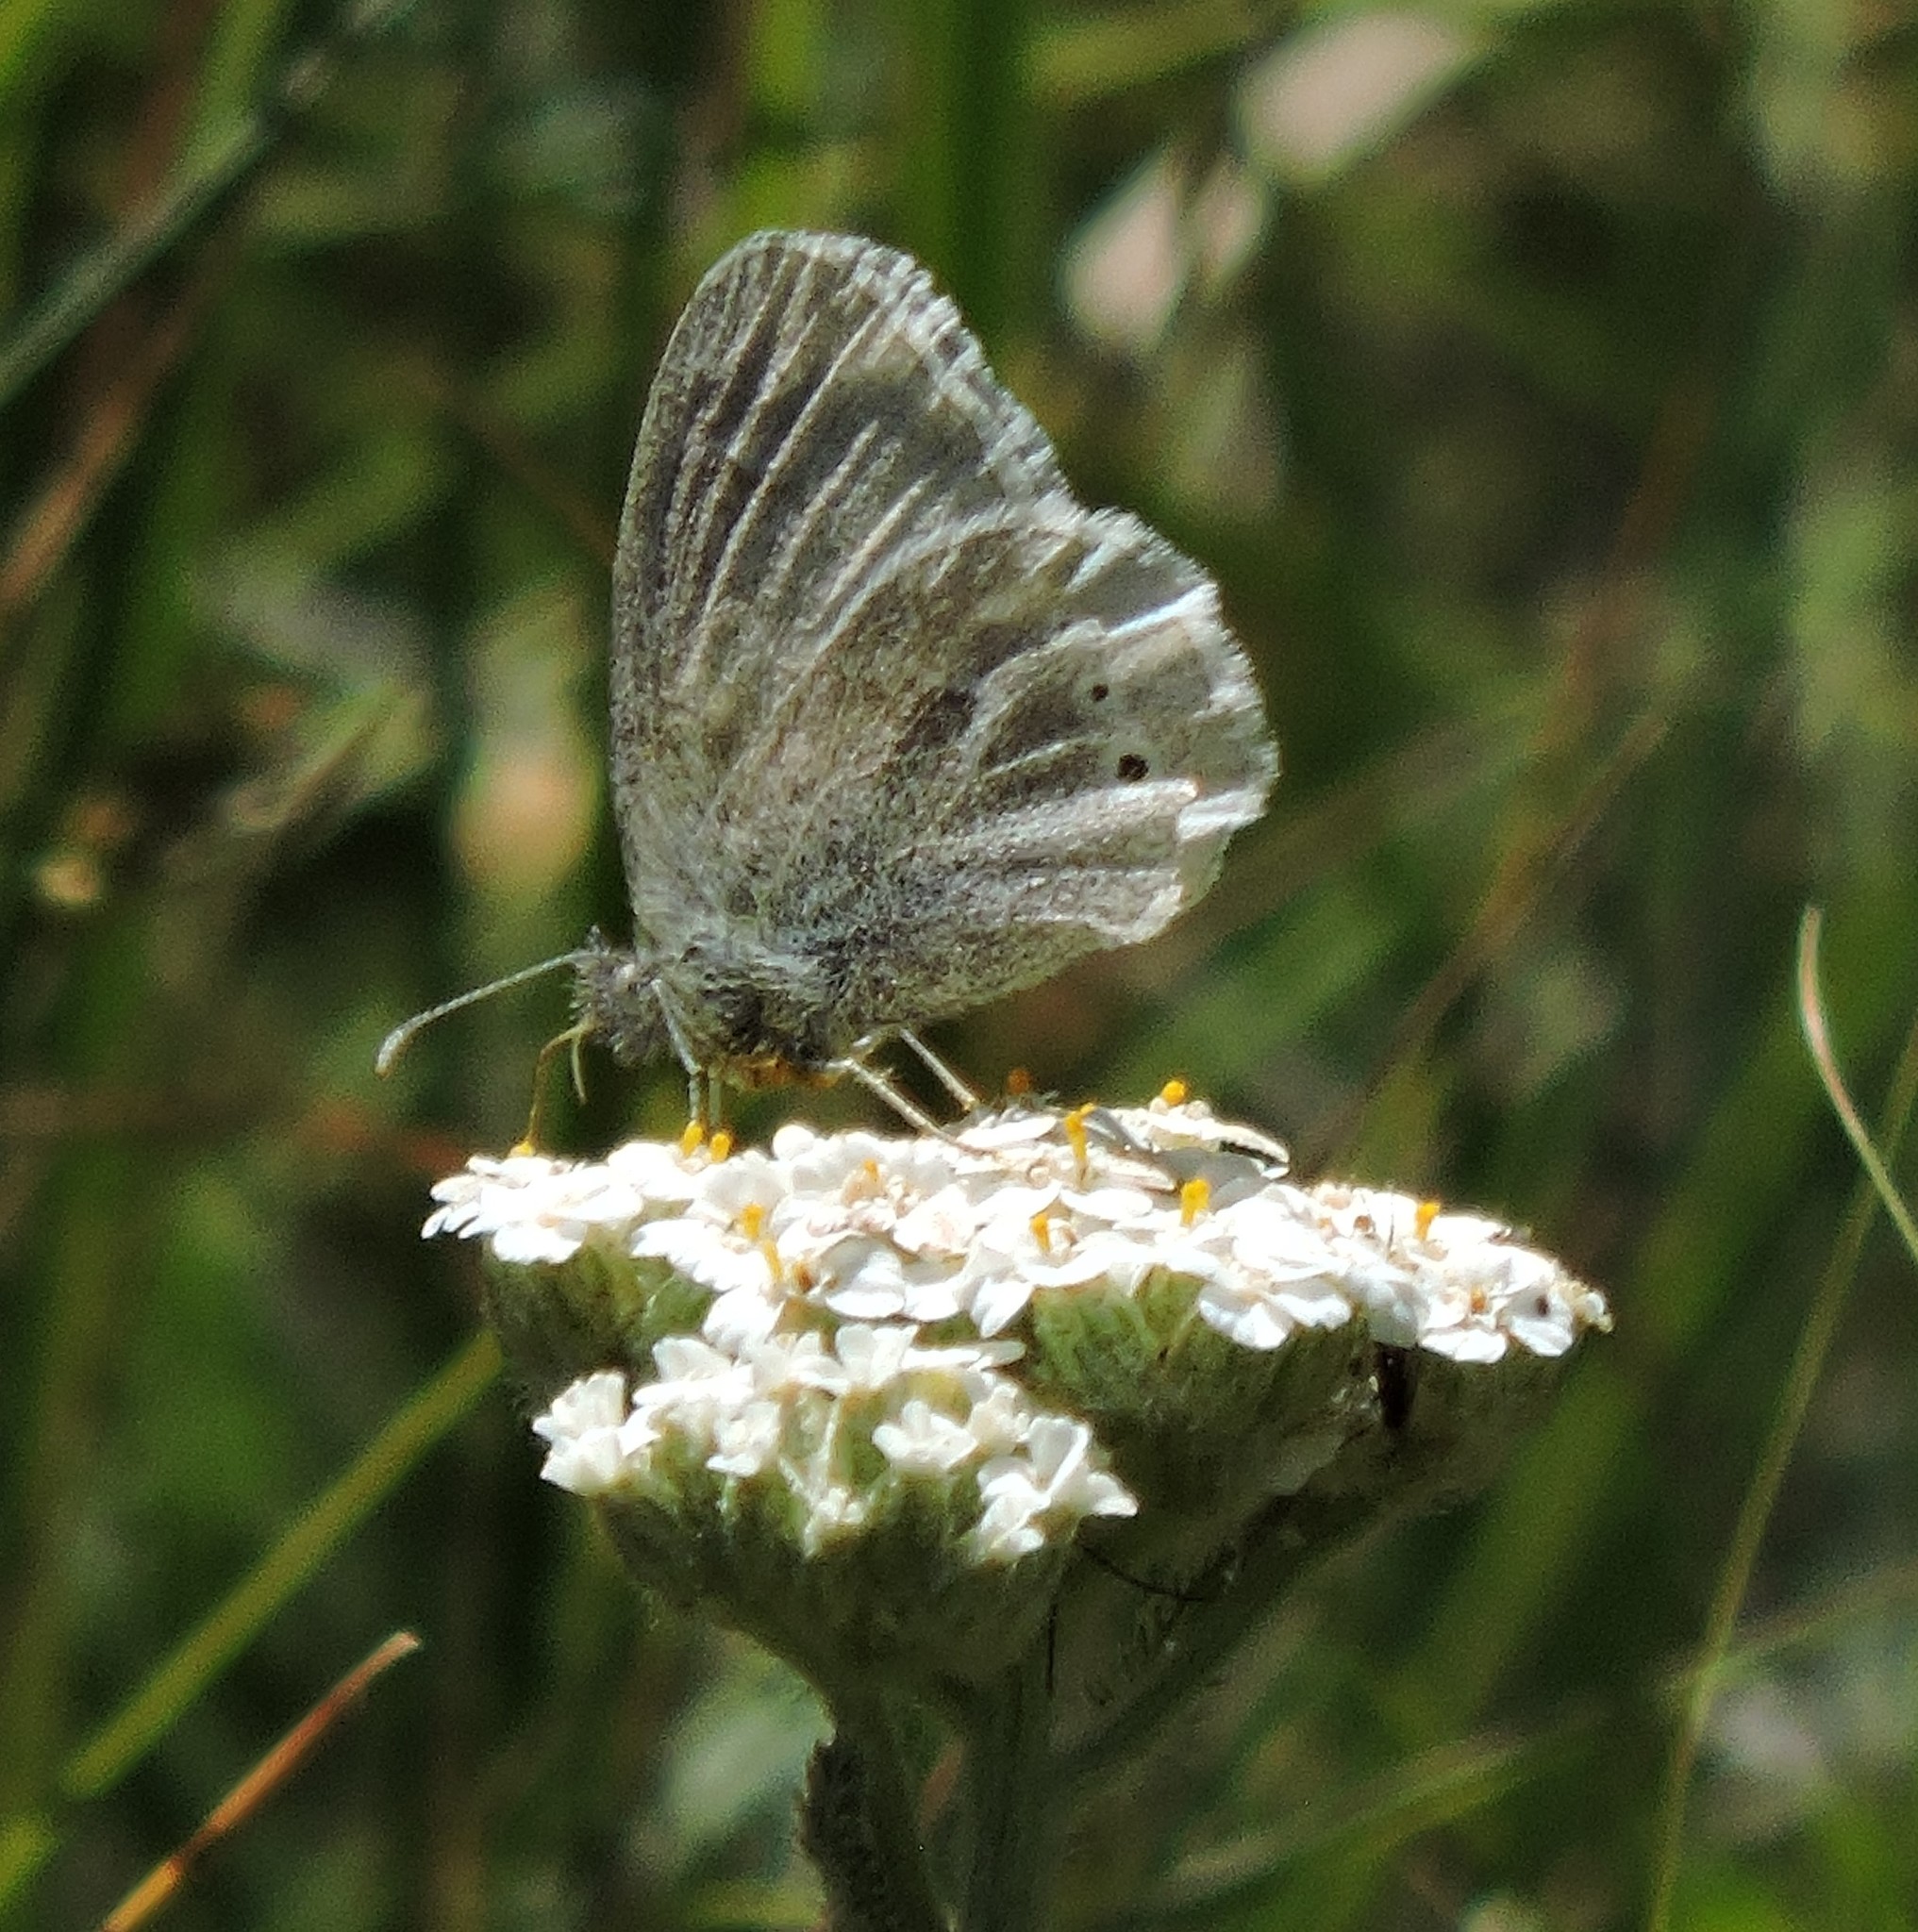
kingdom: Animalia
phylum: Arthropoda
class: Insecta
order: Lepidoptera
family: Nymphalidae
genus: Coenonympha
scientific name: Coenonympha california
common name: Common ringlet
